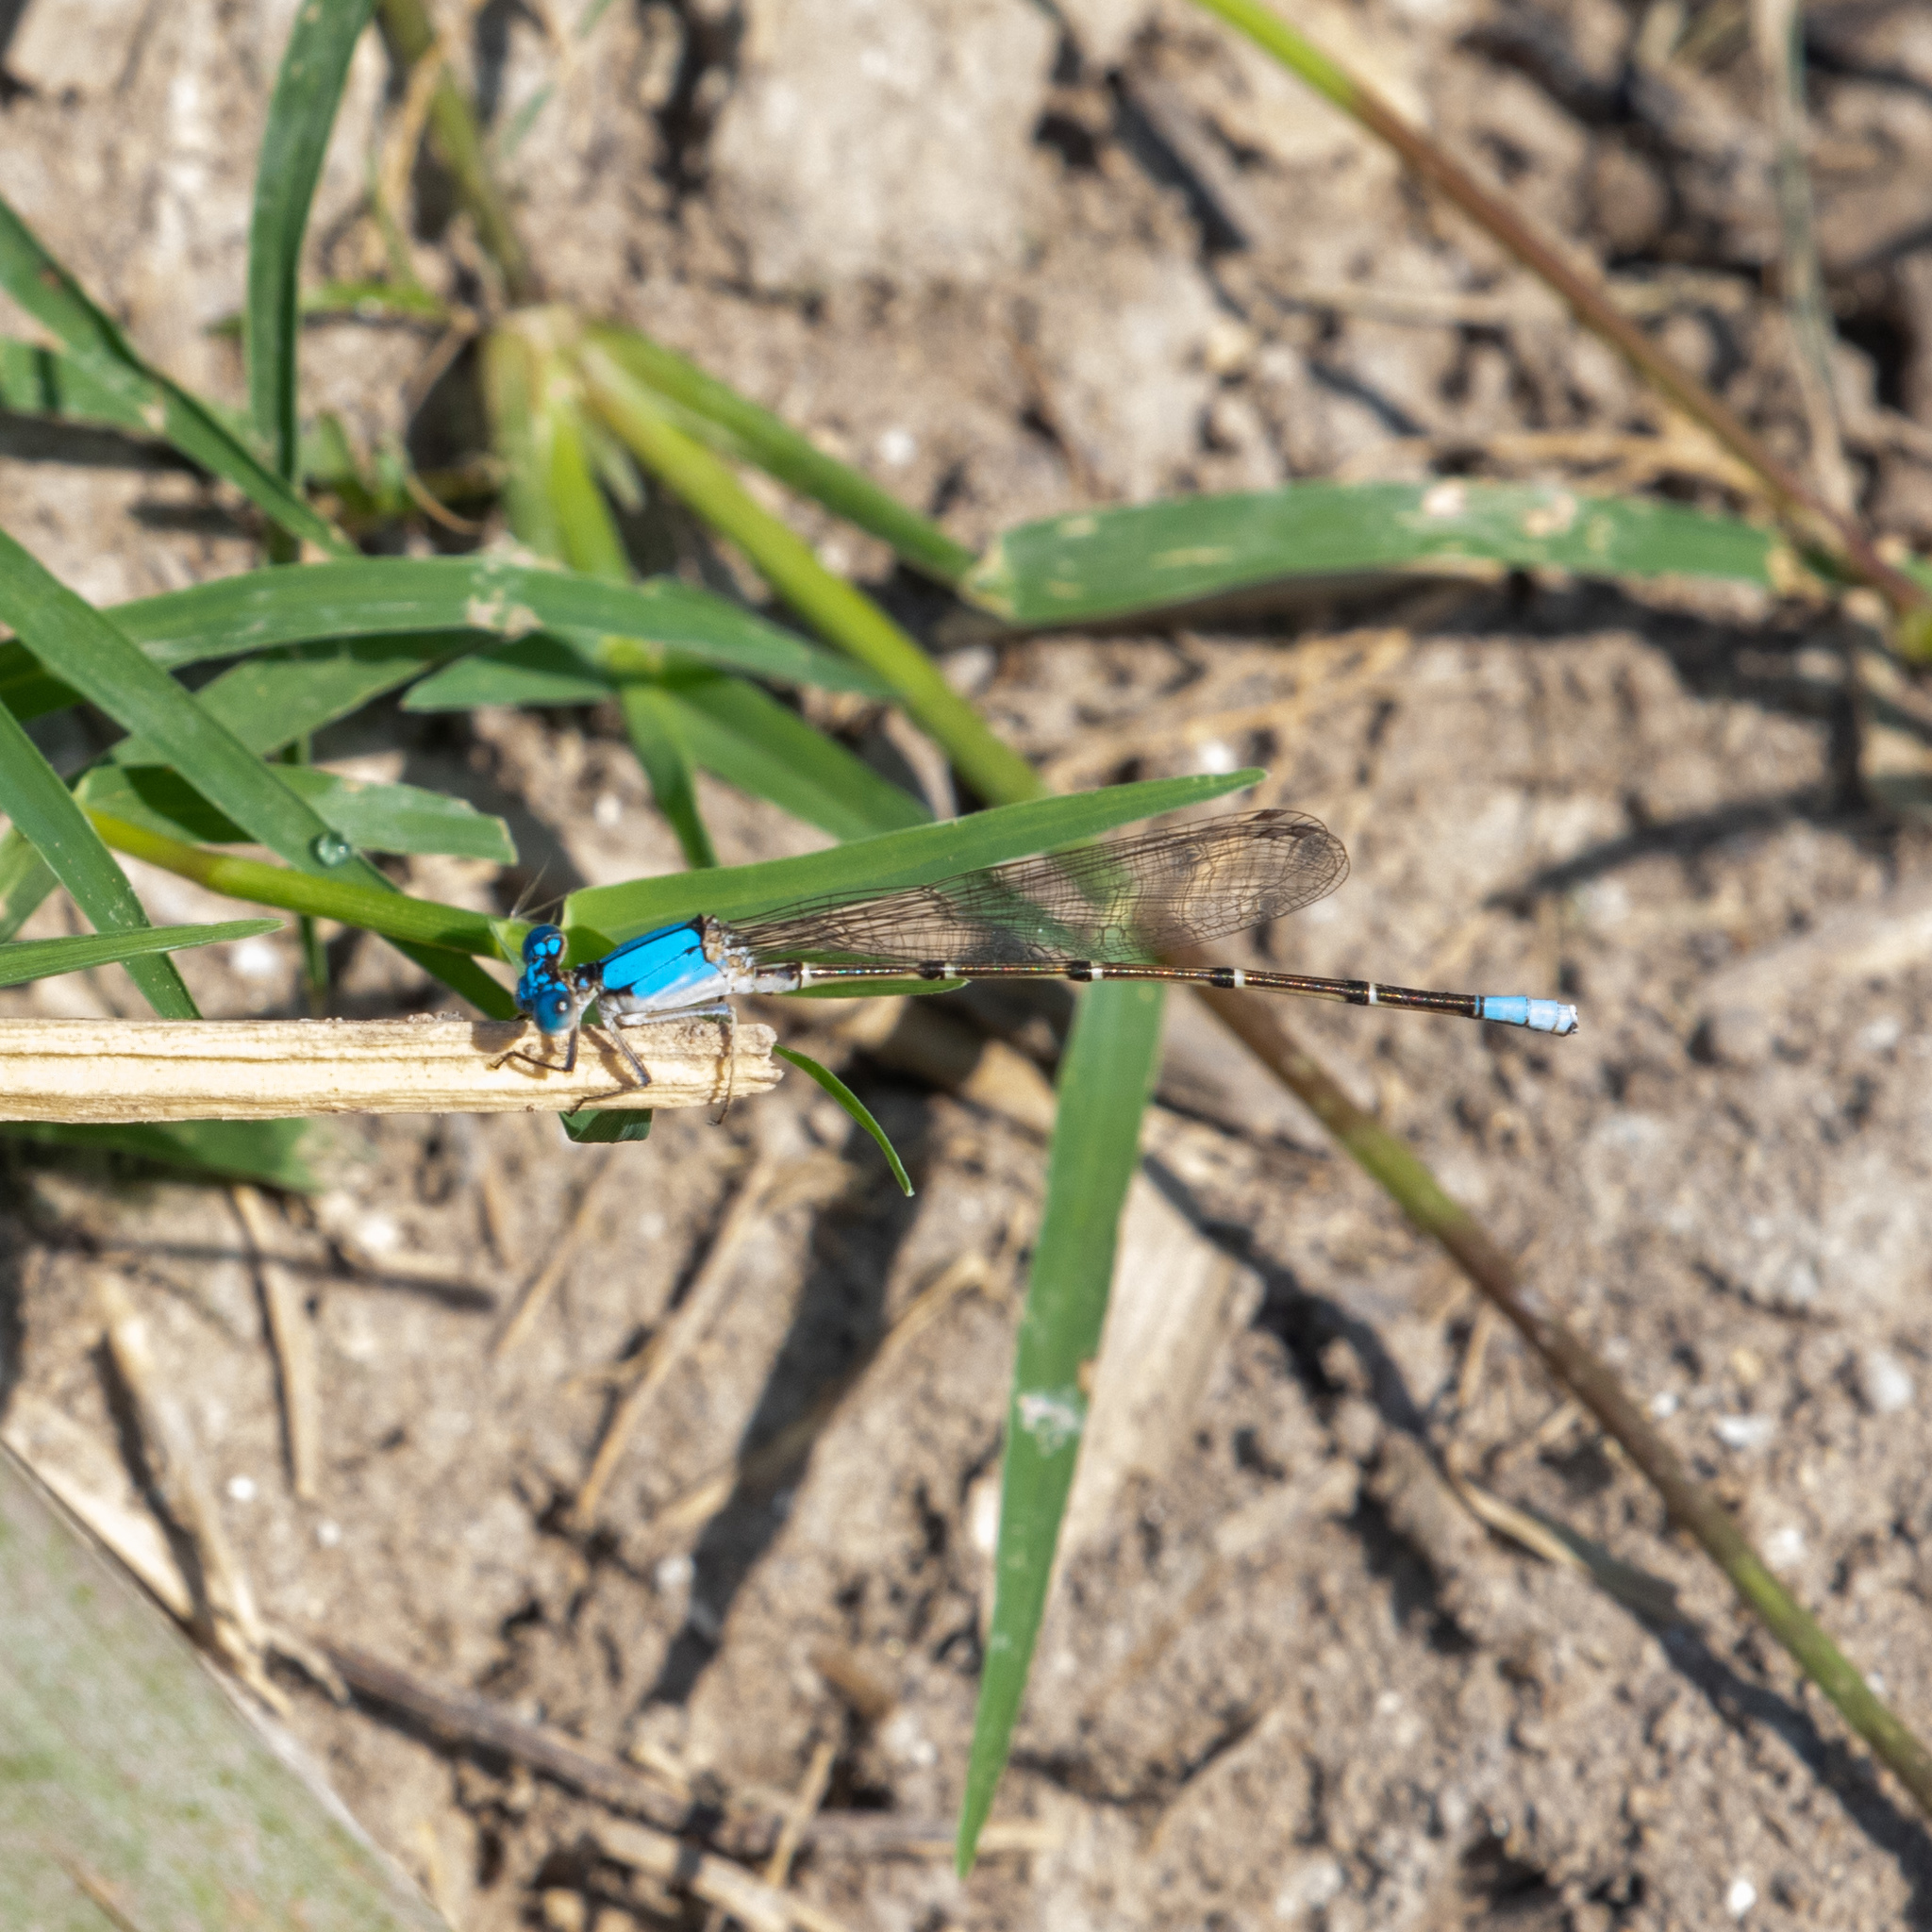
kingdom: Animalia
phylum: Arthropoda
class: Insecta
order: Odonata
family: Coenagrionidae
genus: Argia
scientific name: Argia apicalis
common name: Blue-fronted dancer
